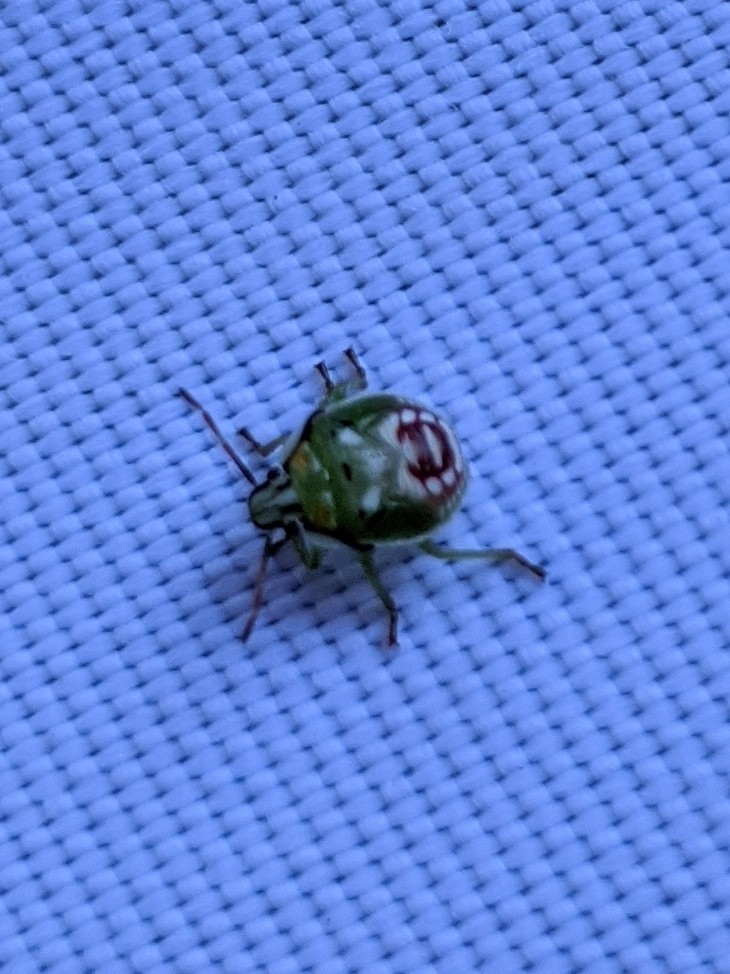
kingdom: Animalia
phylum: Arthropoda
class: Insecta
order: Hemiptera
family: Pentatomidae
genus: Tylospilus
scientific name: Tylospilus acutissimus
